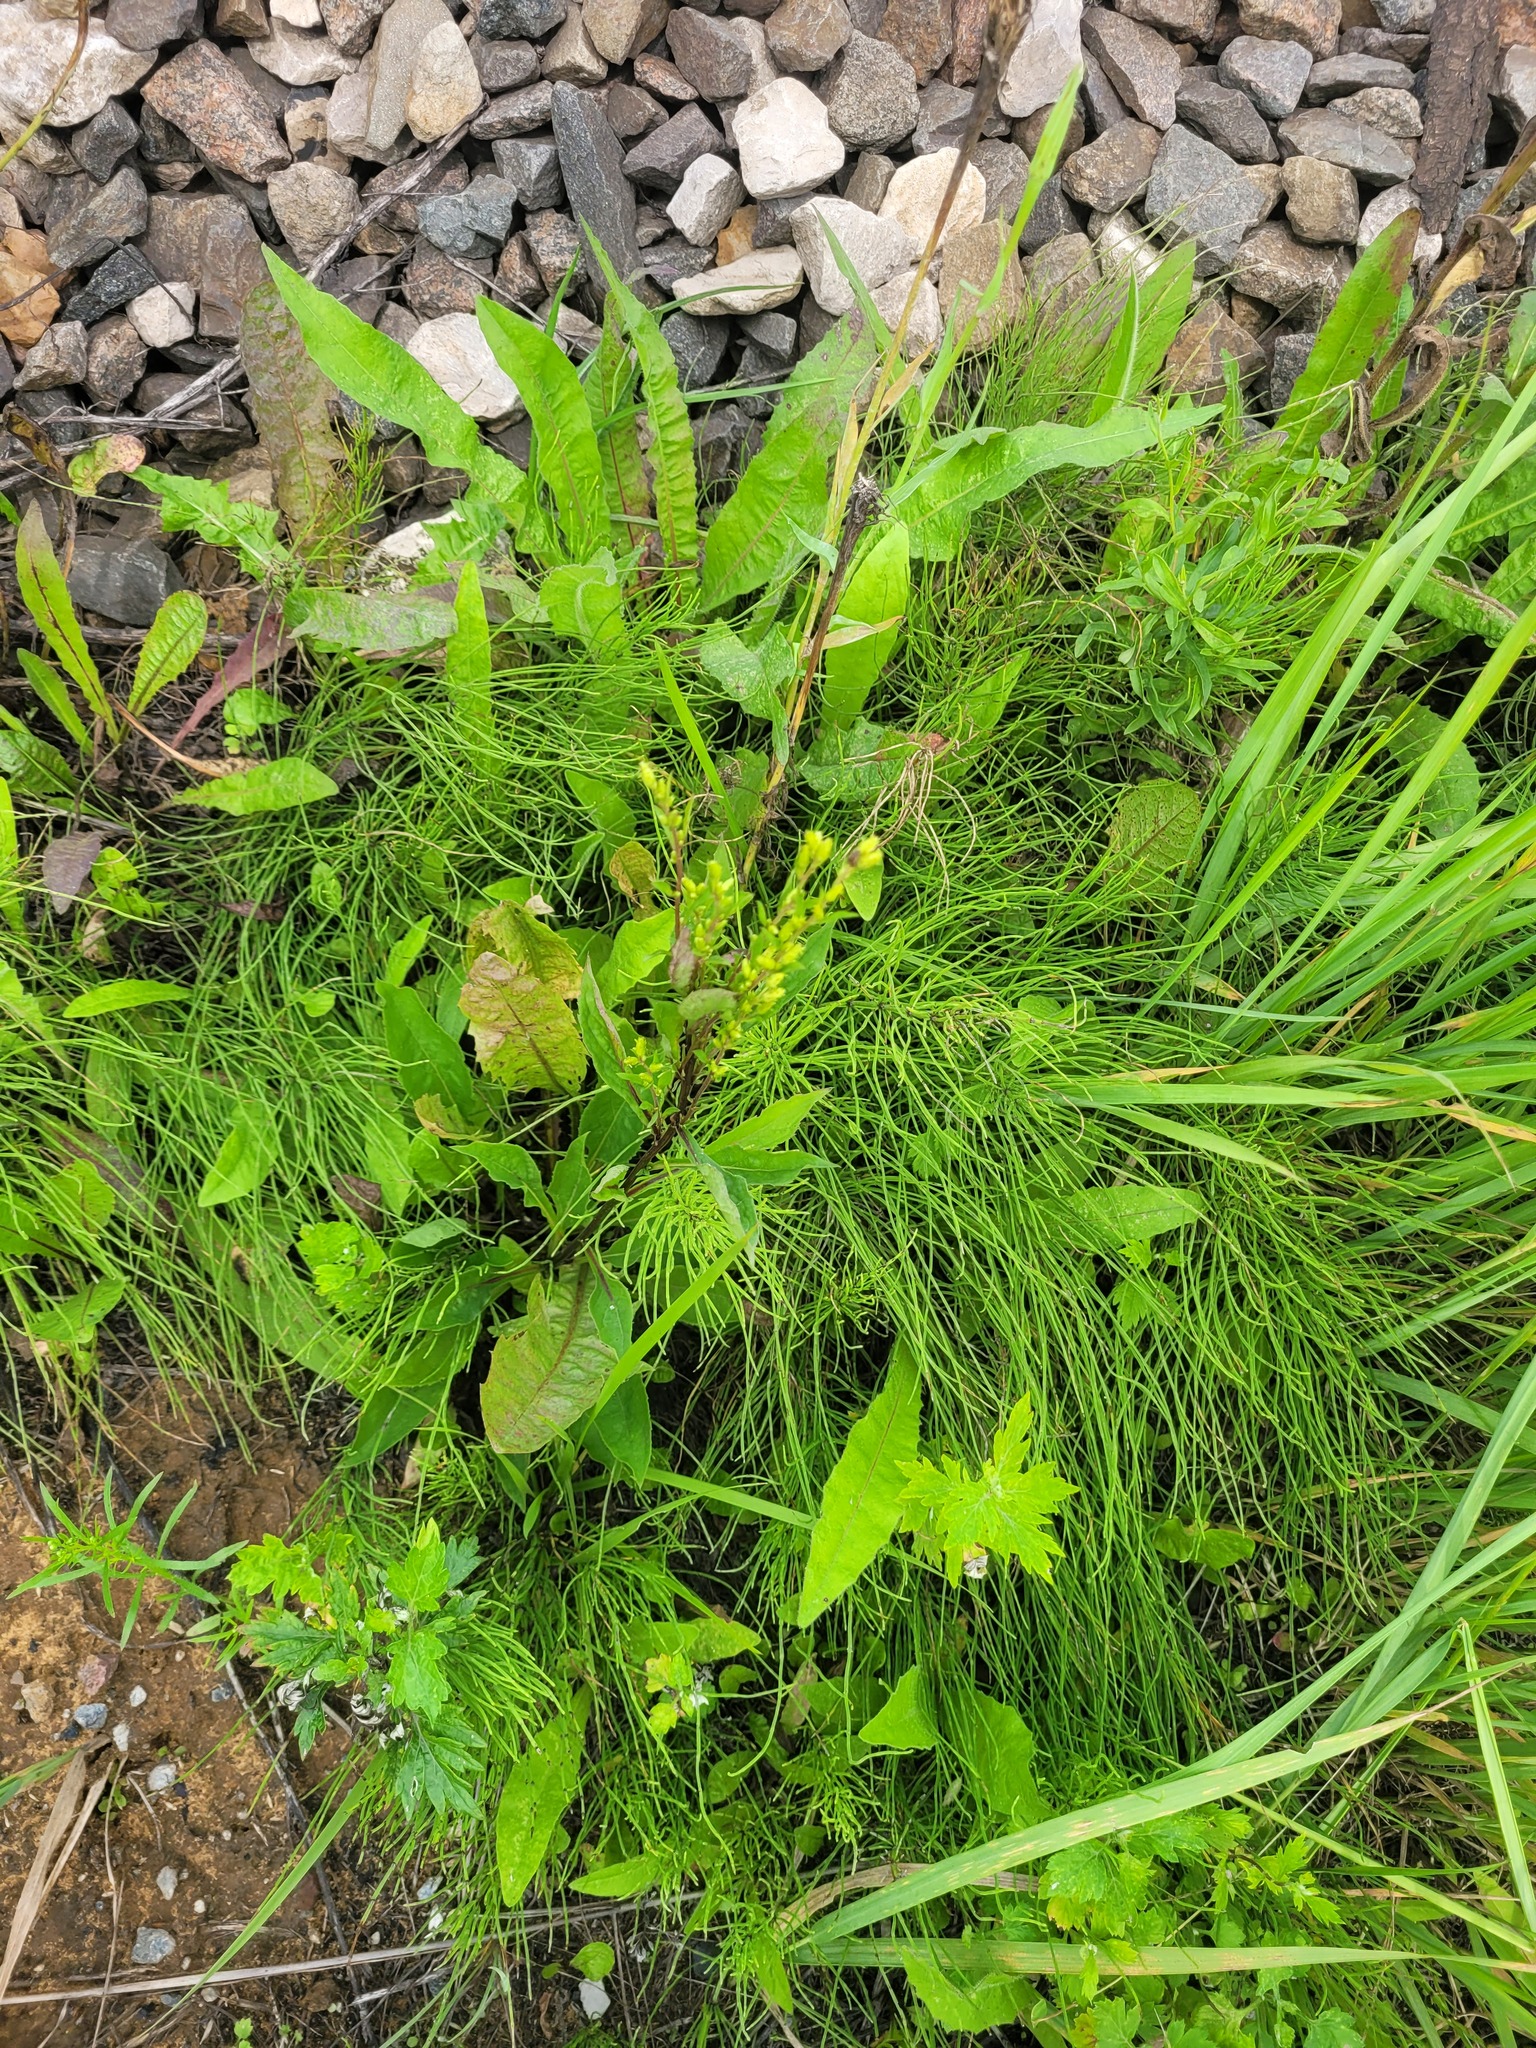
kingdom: Plantae
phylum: Tracheophyta
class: Magnoliopsida
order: Asterales
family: Asteraceae
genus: Solidago
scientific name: Solidago virgaurea
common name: Goldenrod
